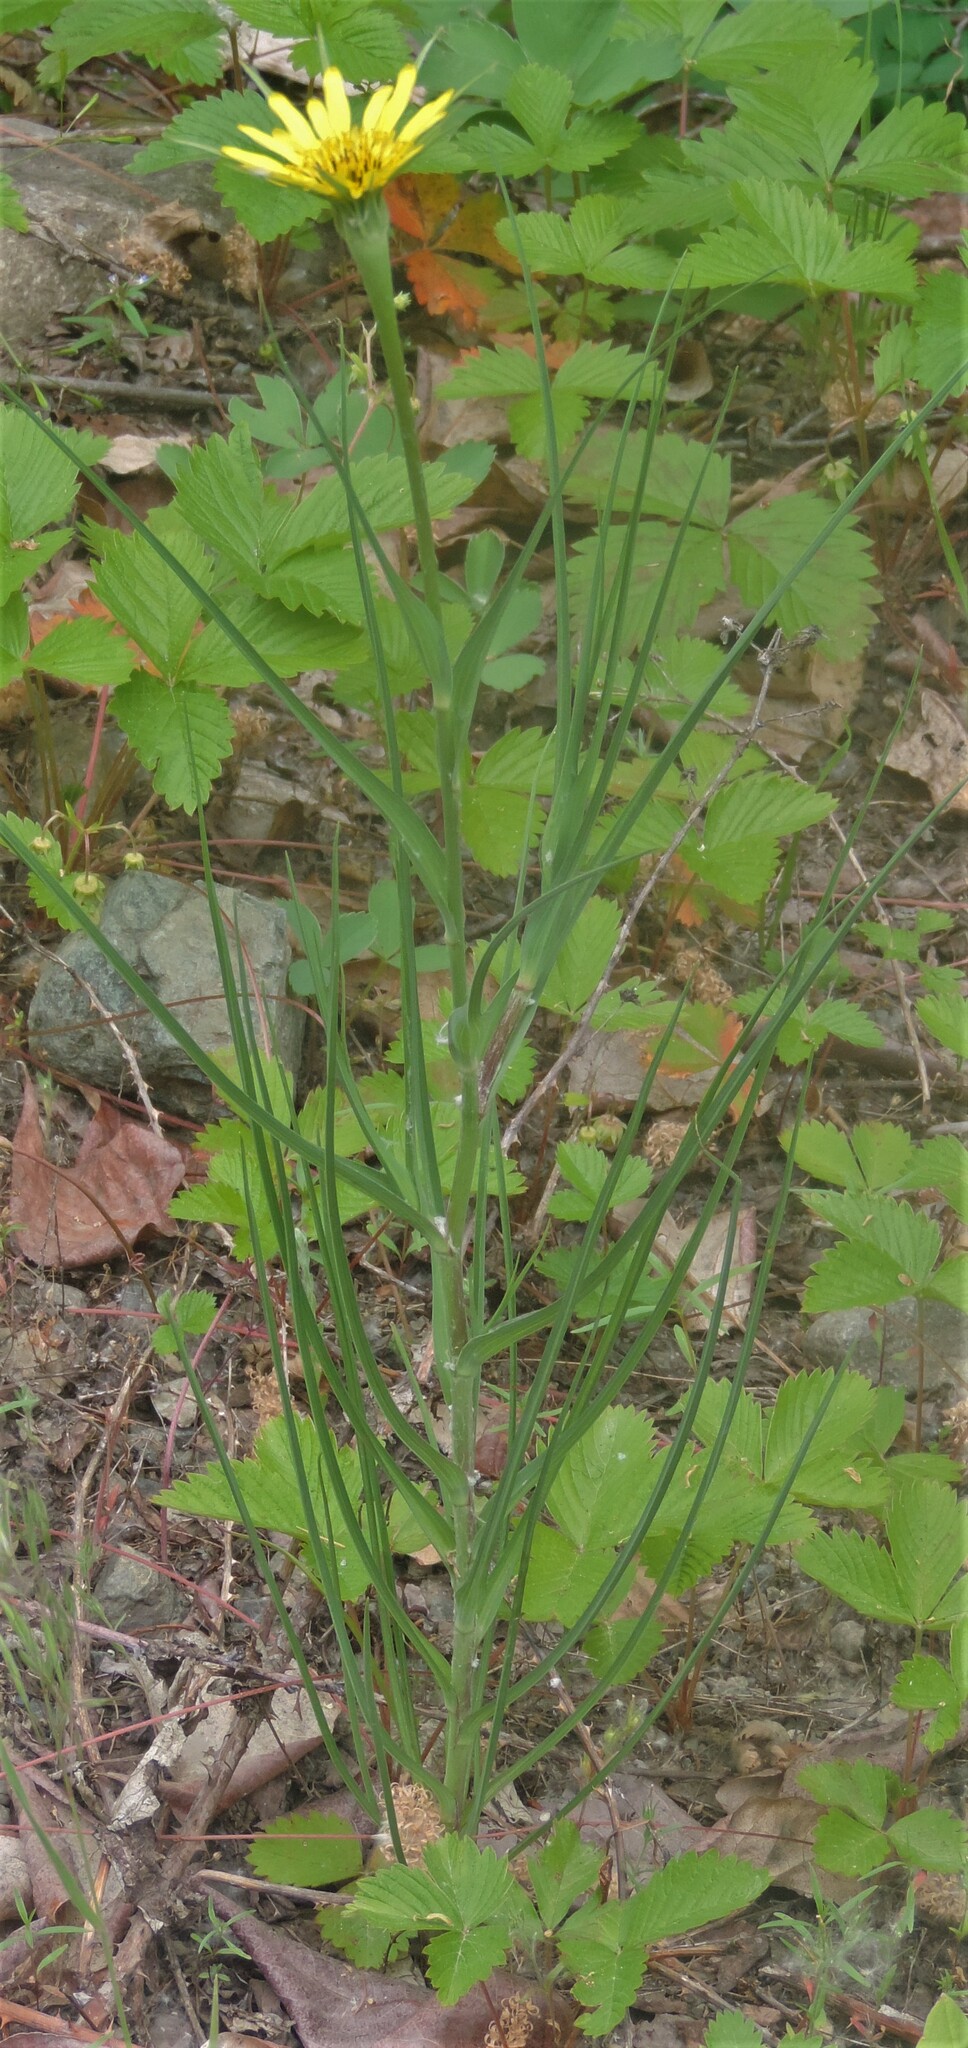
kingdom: Plantae
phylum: Tracheophyta
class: Magnoliopsida
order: Asterales
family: Asteraceae
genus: Tragopogon
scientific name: Tragopogon dubius
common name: Yellow salsify
